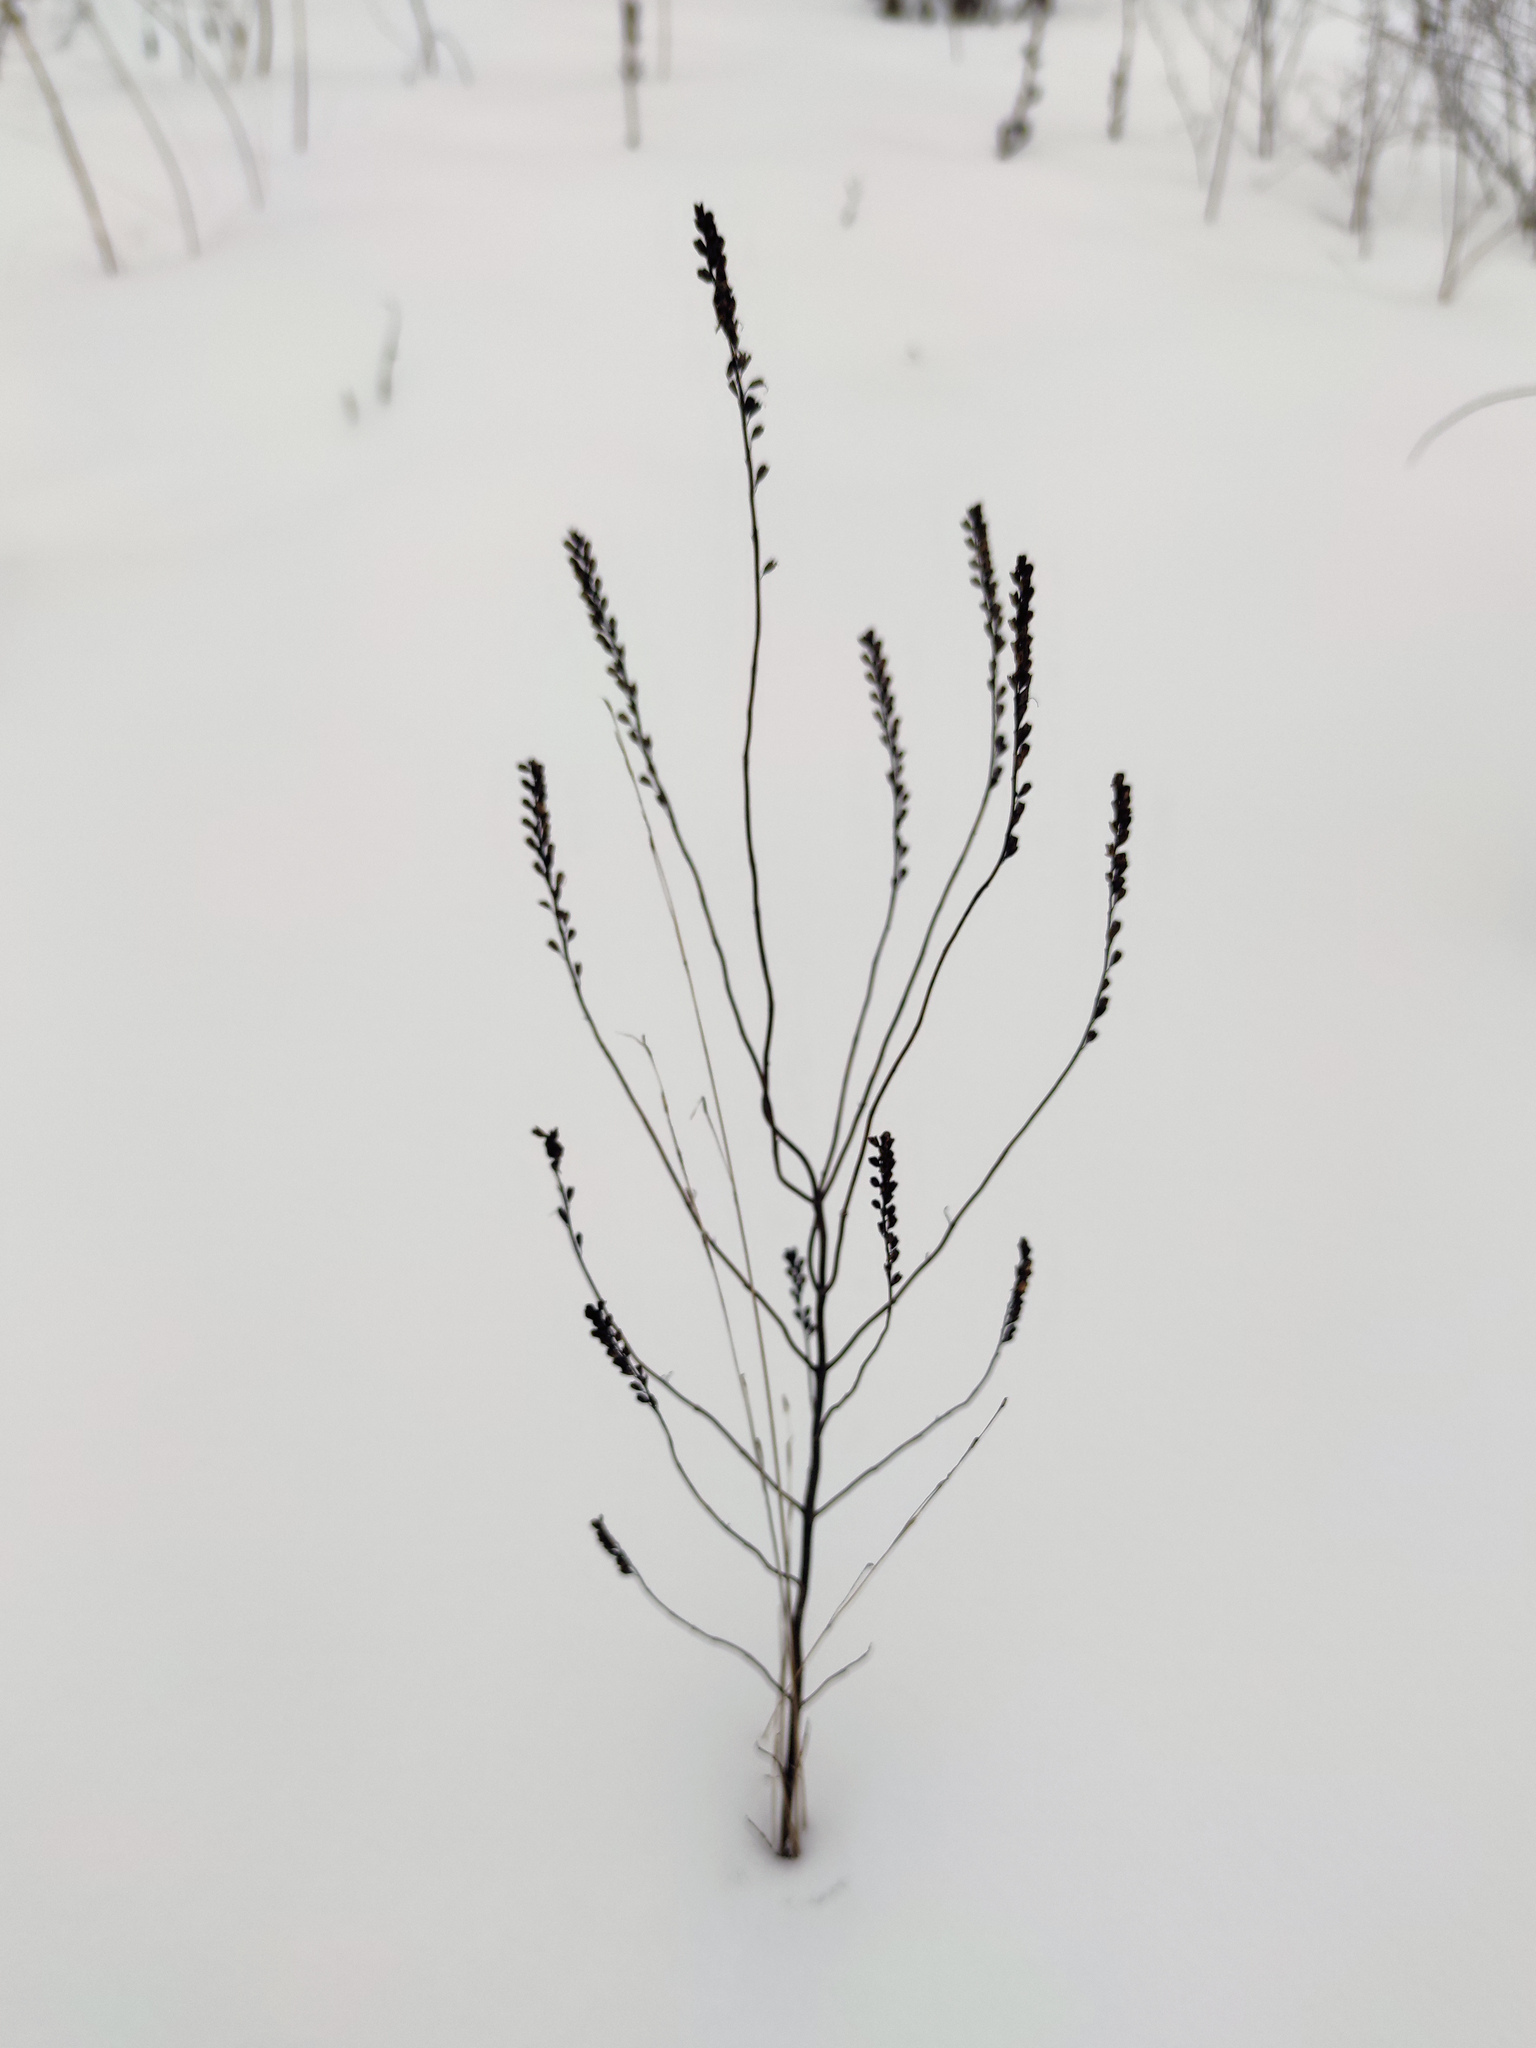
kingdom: Plantae
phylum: Tracheophyta
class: Magnoliopsida
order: Lamiales
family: Orobanchaceae
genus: Odontites
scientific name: Odontites luteus
